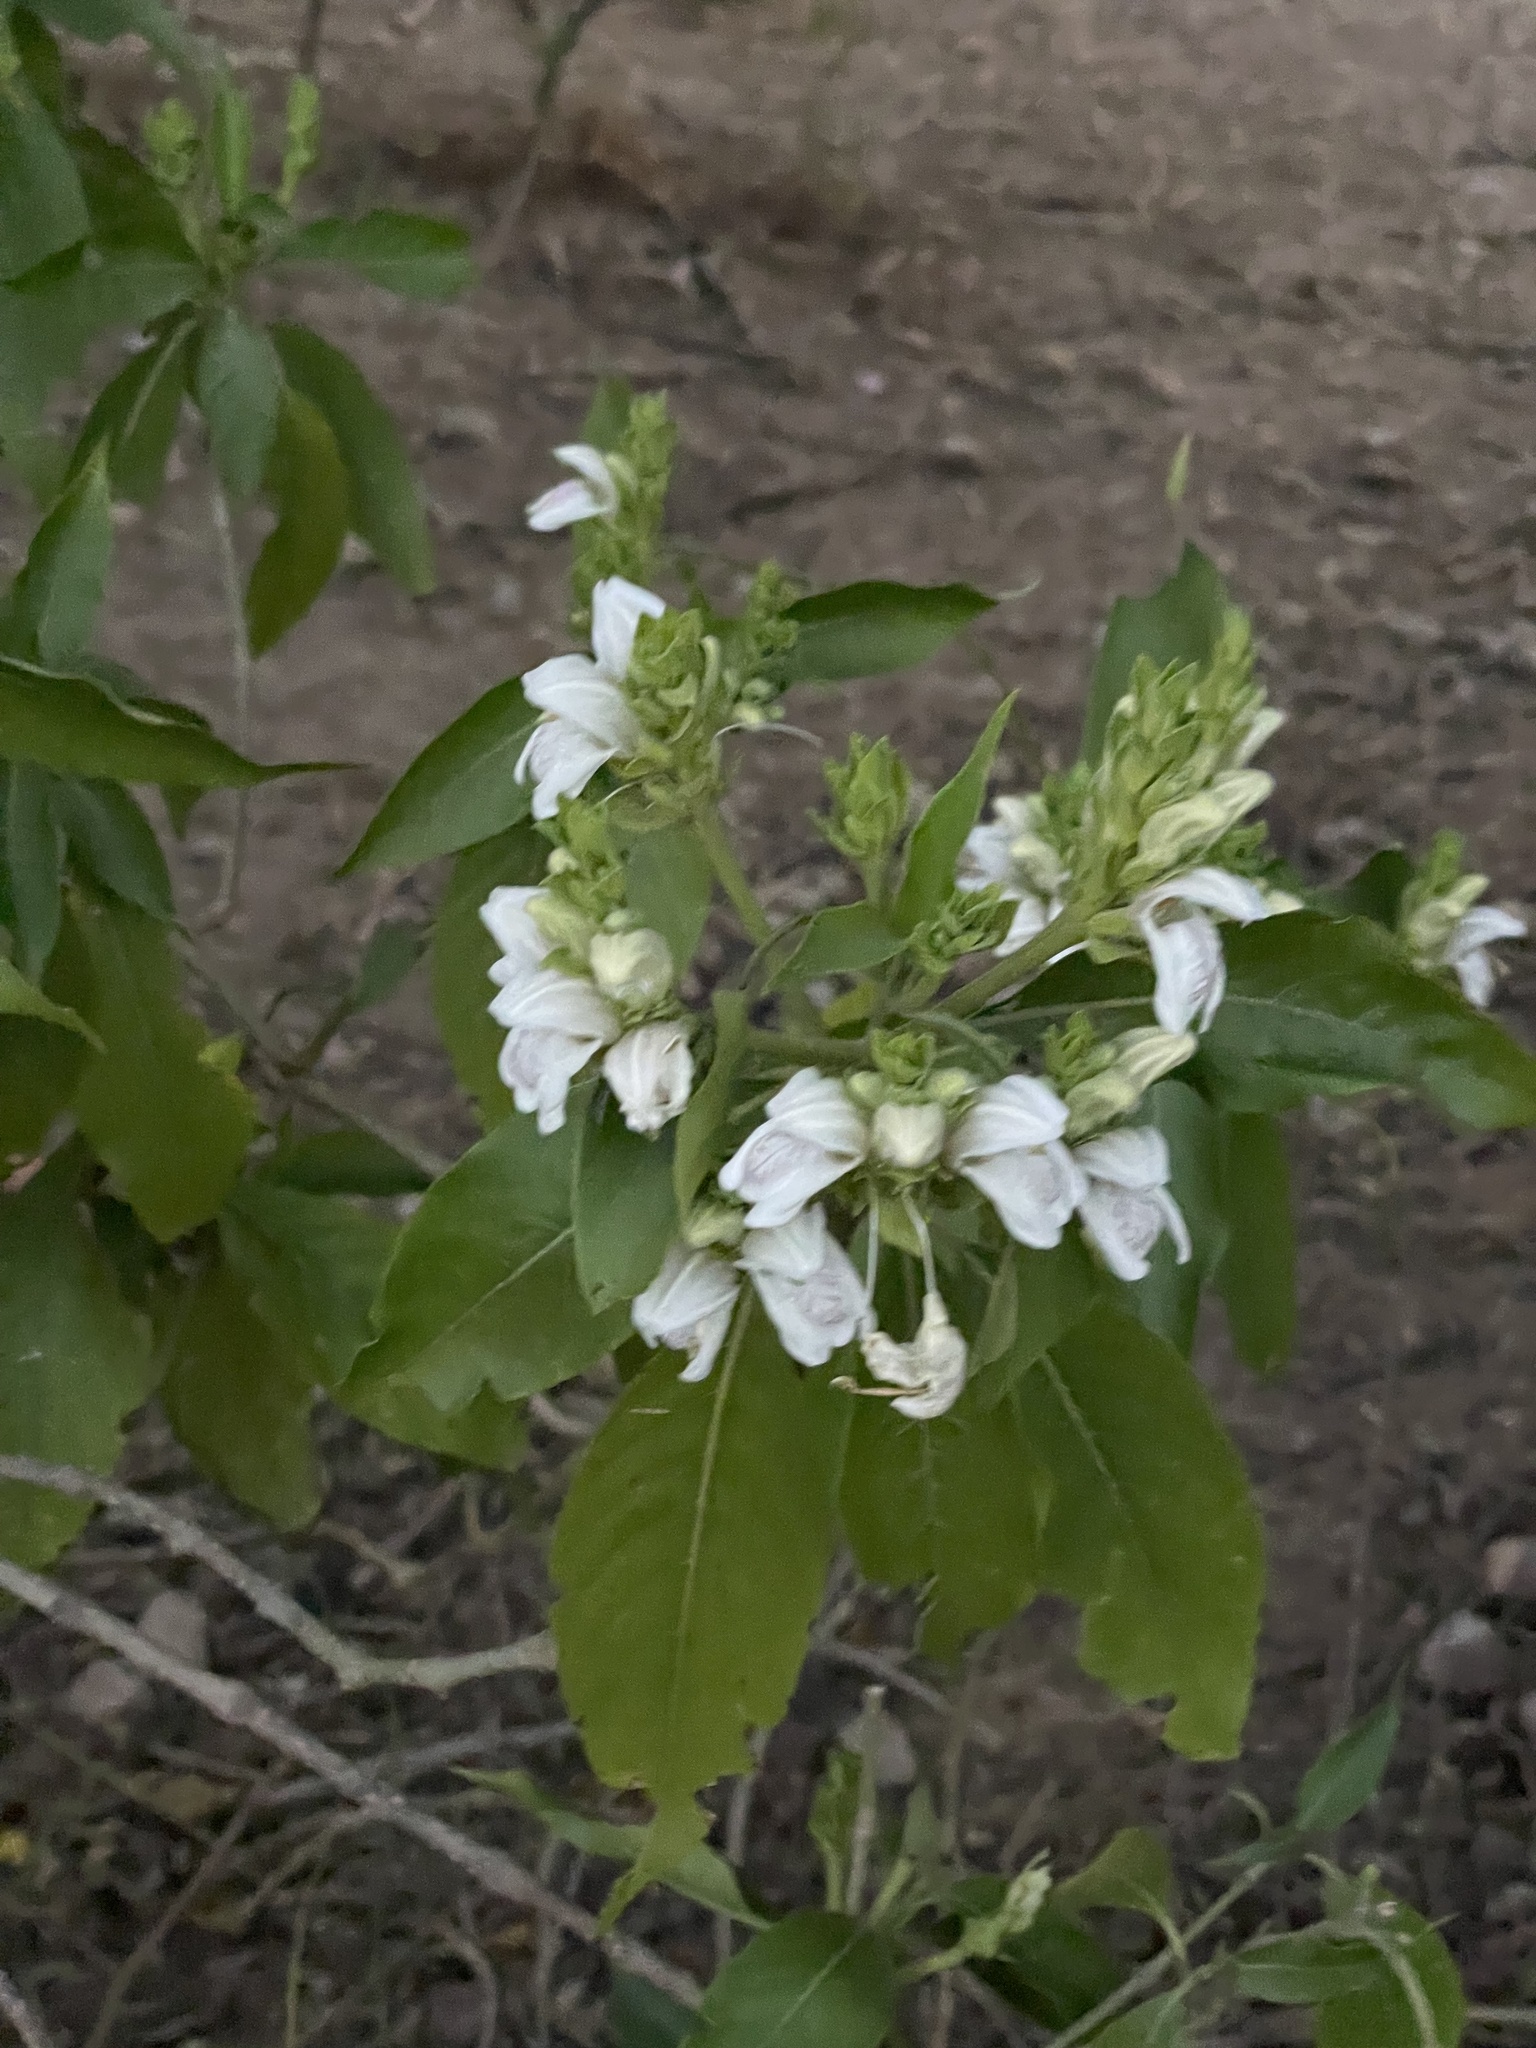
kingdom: Plantae
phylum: Tracheophyta
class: Magnoliopsida
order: Lamiales
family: Acanthaceae
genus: Justicia
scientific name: Justicia adhatoda
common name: Malabar nut
